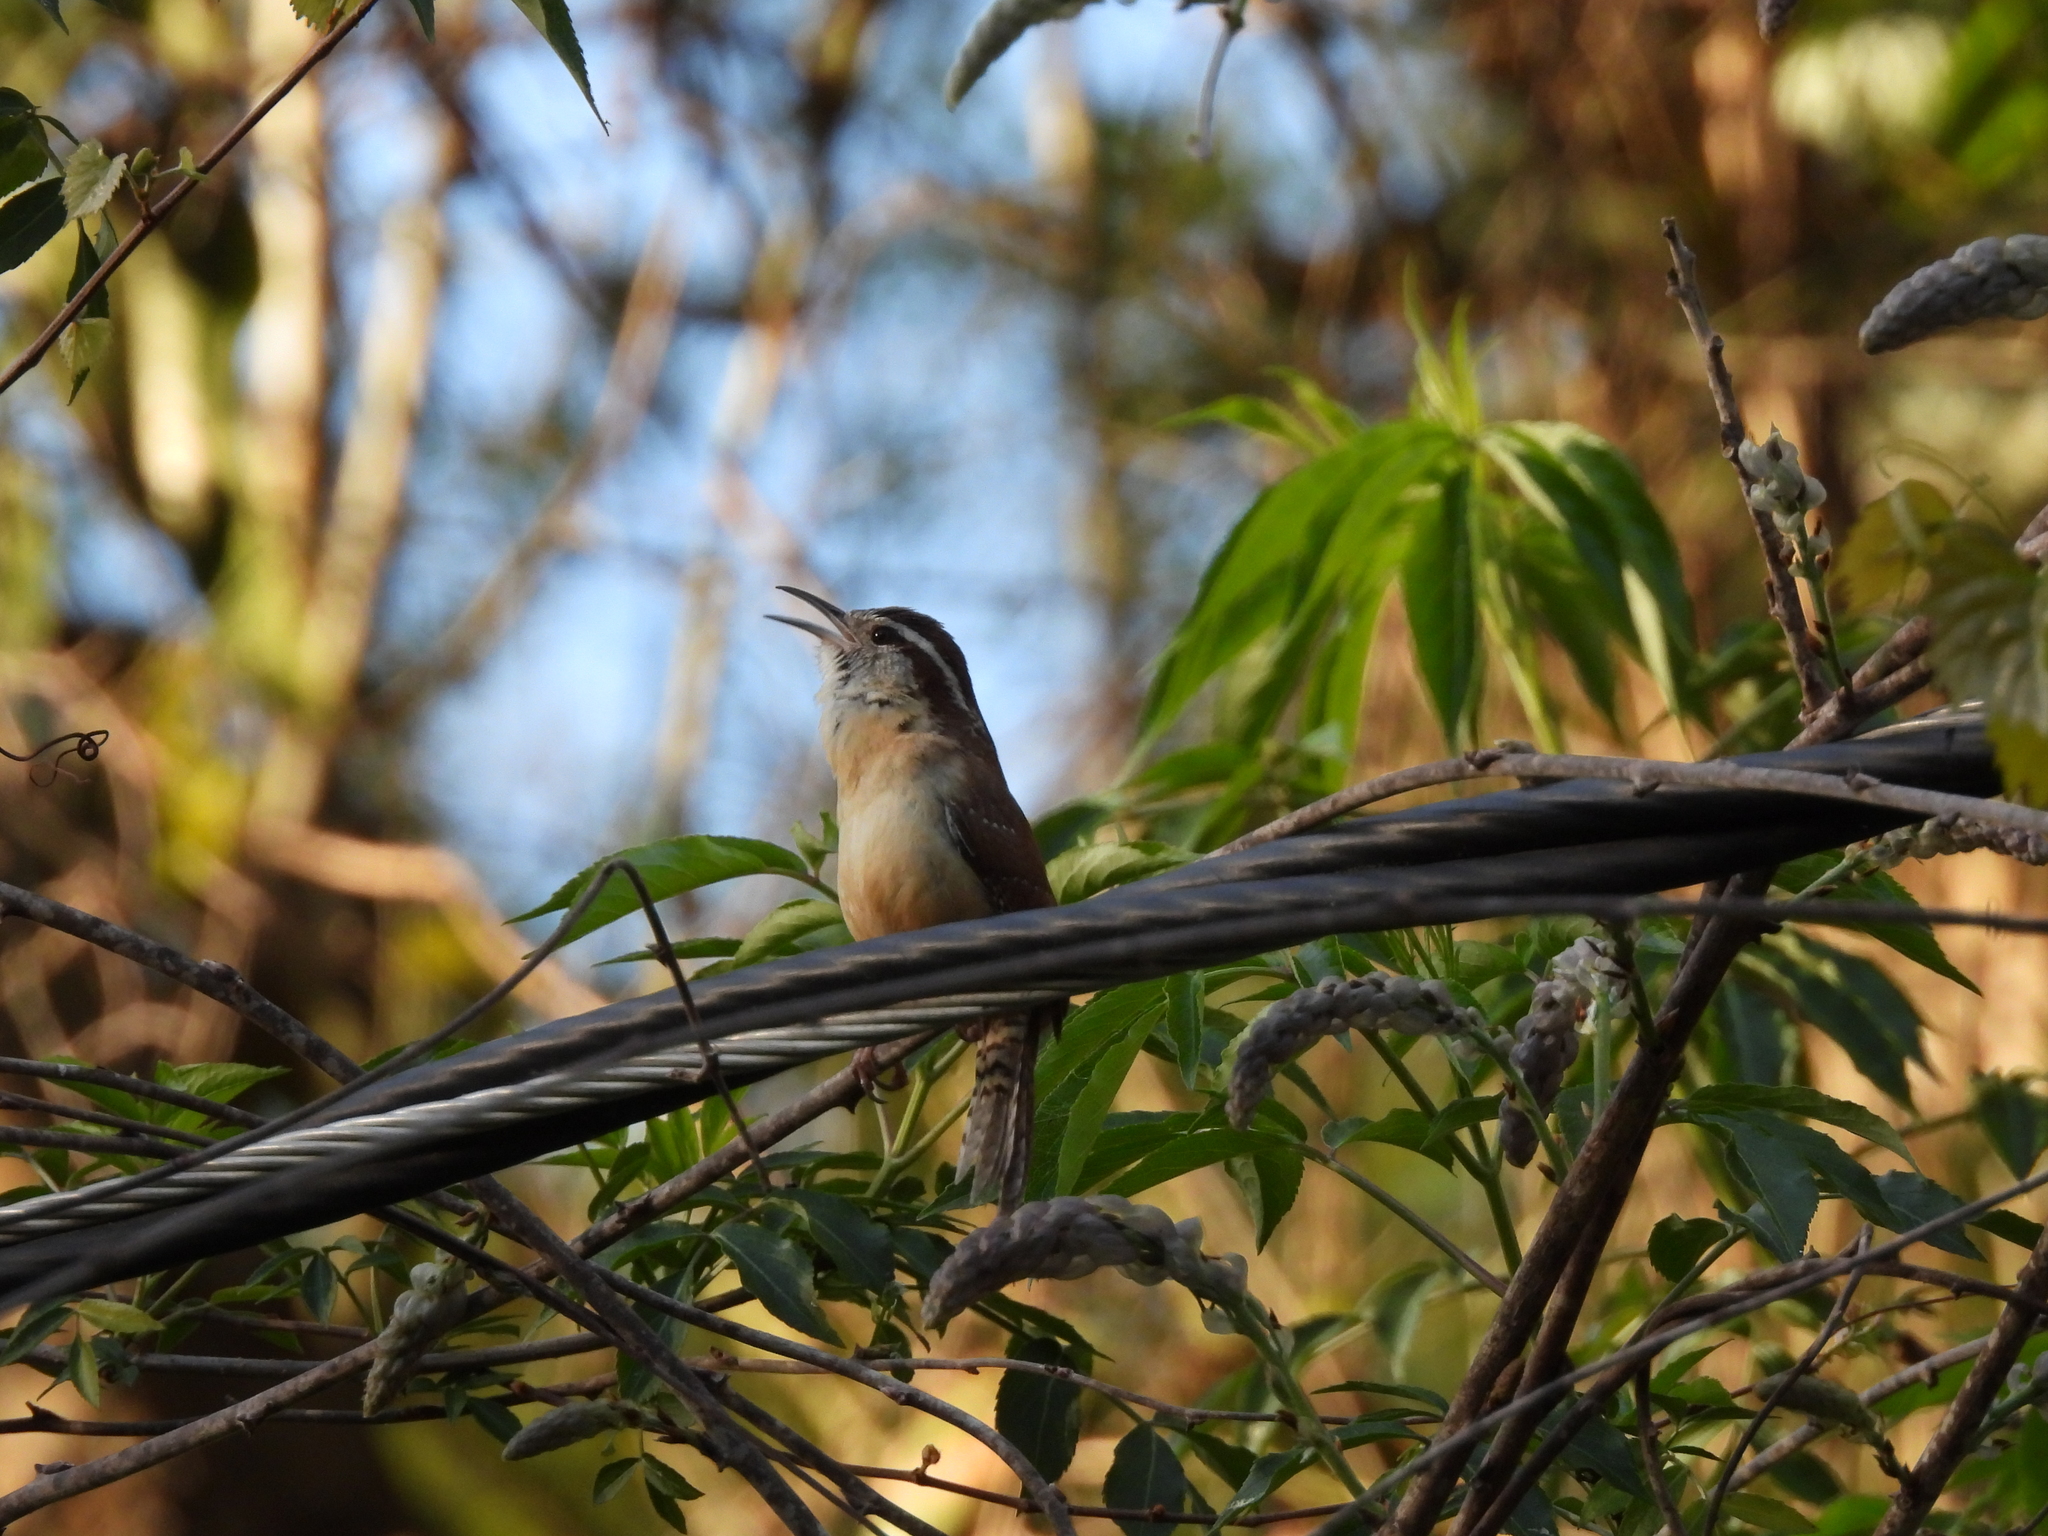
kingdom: Animalia
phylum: Chordata
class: Aves
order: Passeriformes
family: Troglodytidae
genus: Thryothorus
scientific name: Thryothorus ludovicianus
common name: Carolina wren
